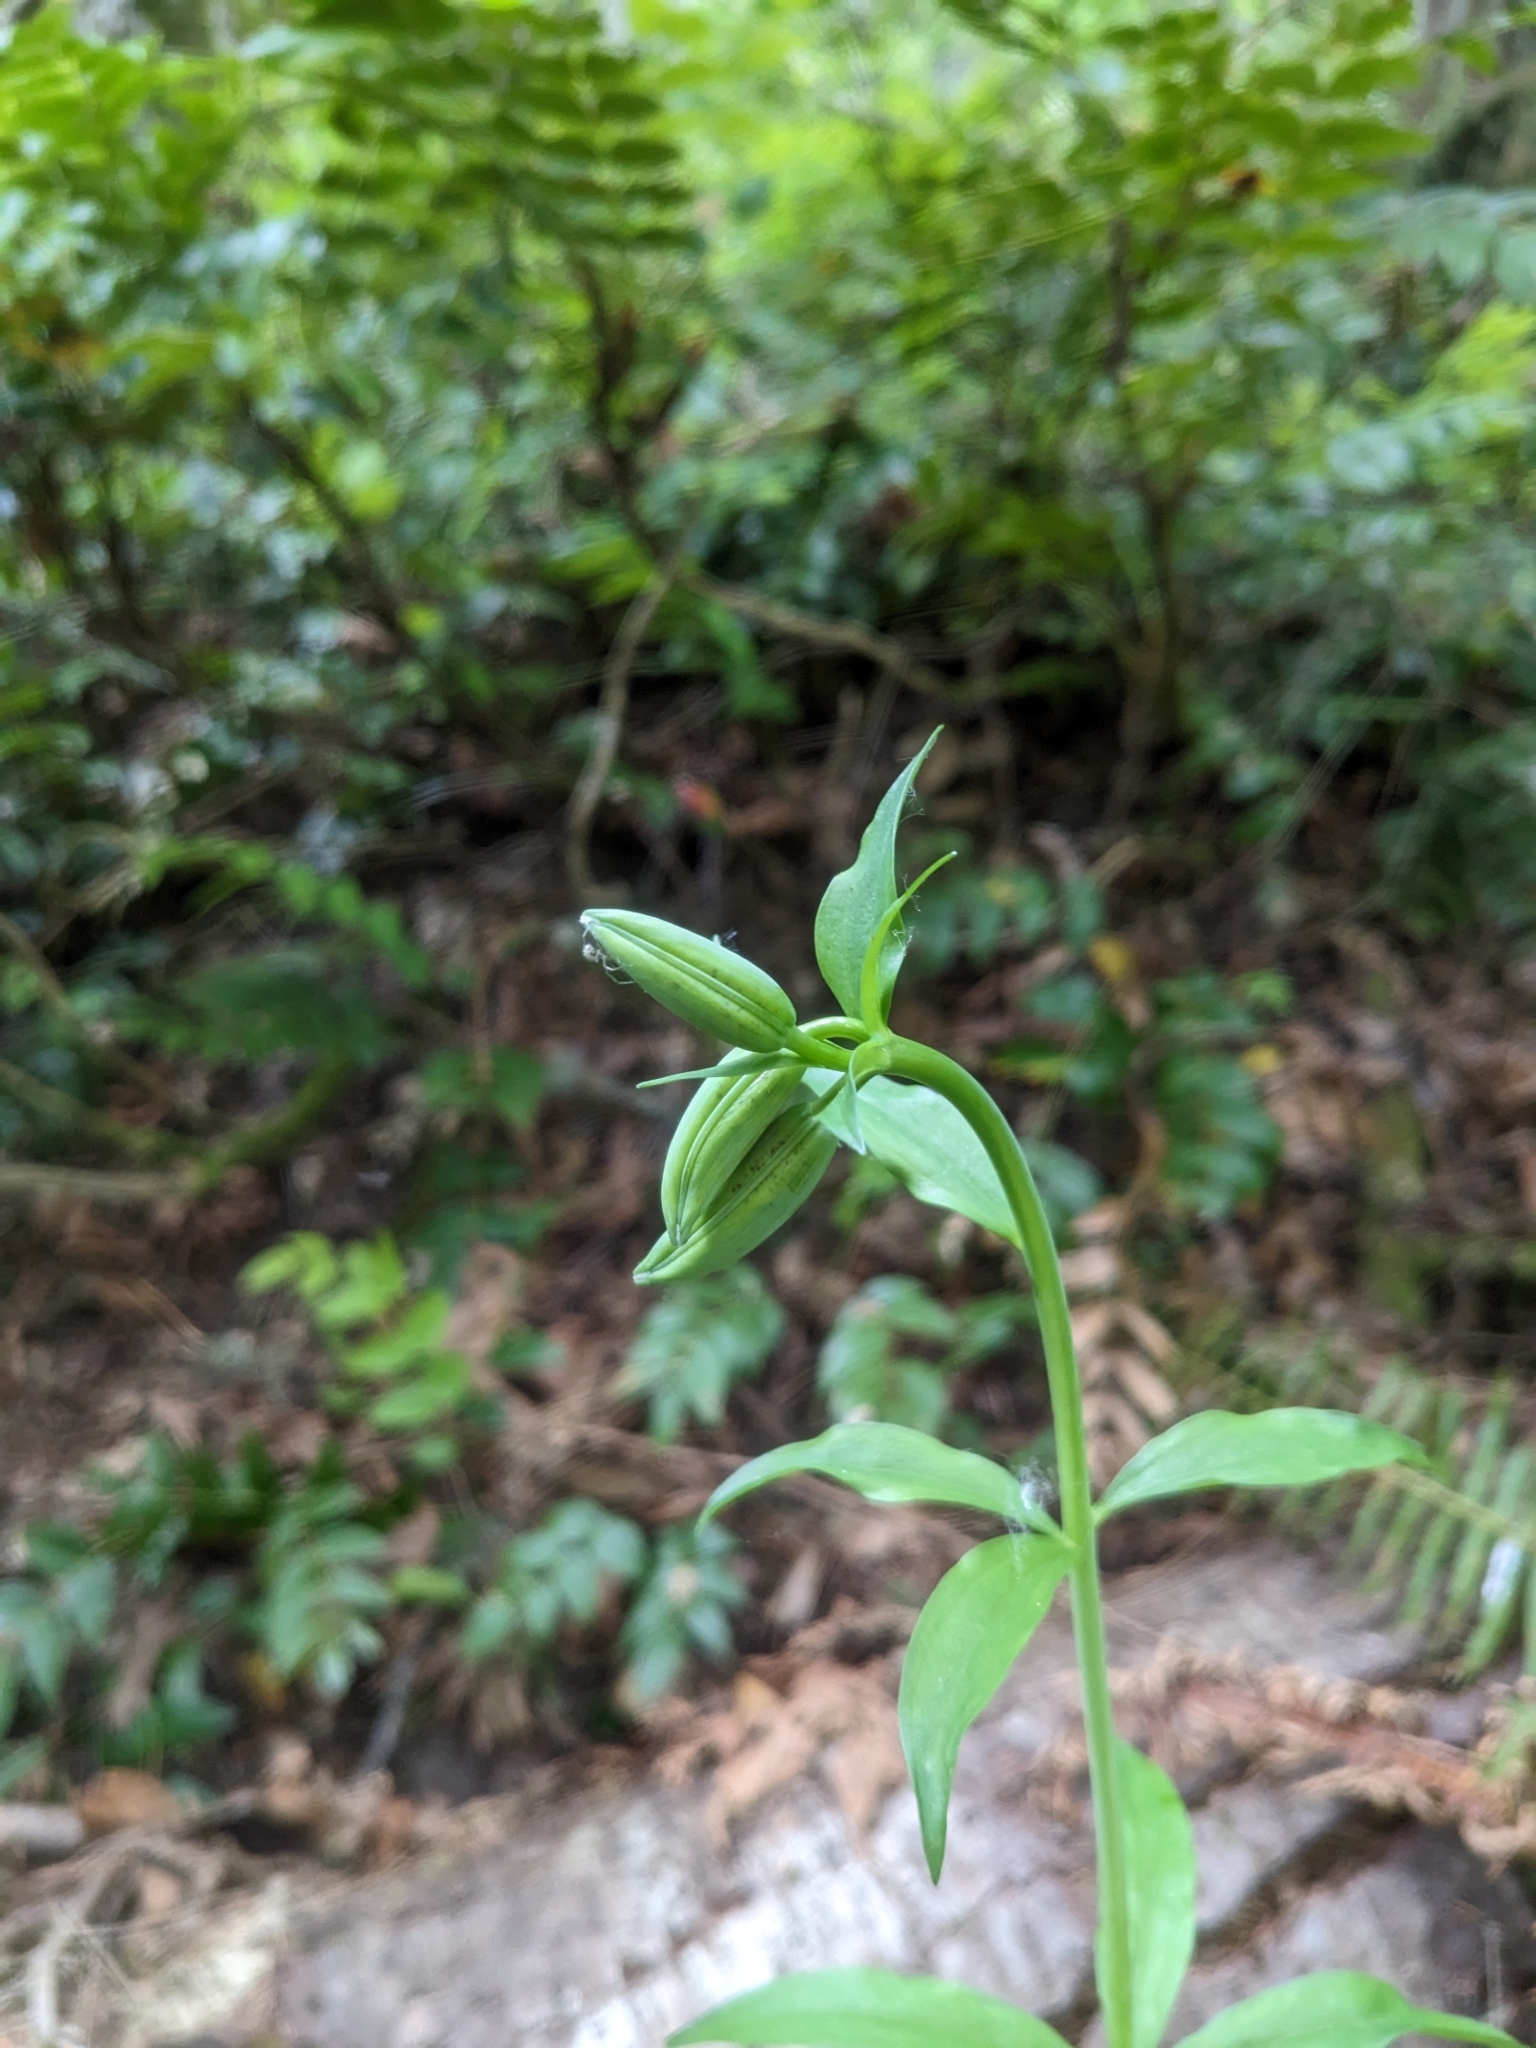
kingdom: Plantae
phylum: Tracheophyta
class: Liliopsida
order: Liliales
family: Liliaceae
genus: Lilium
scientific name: Lilium columbianum
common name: Columbia lily
